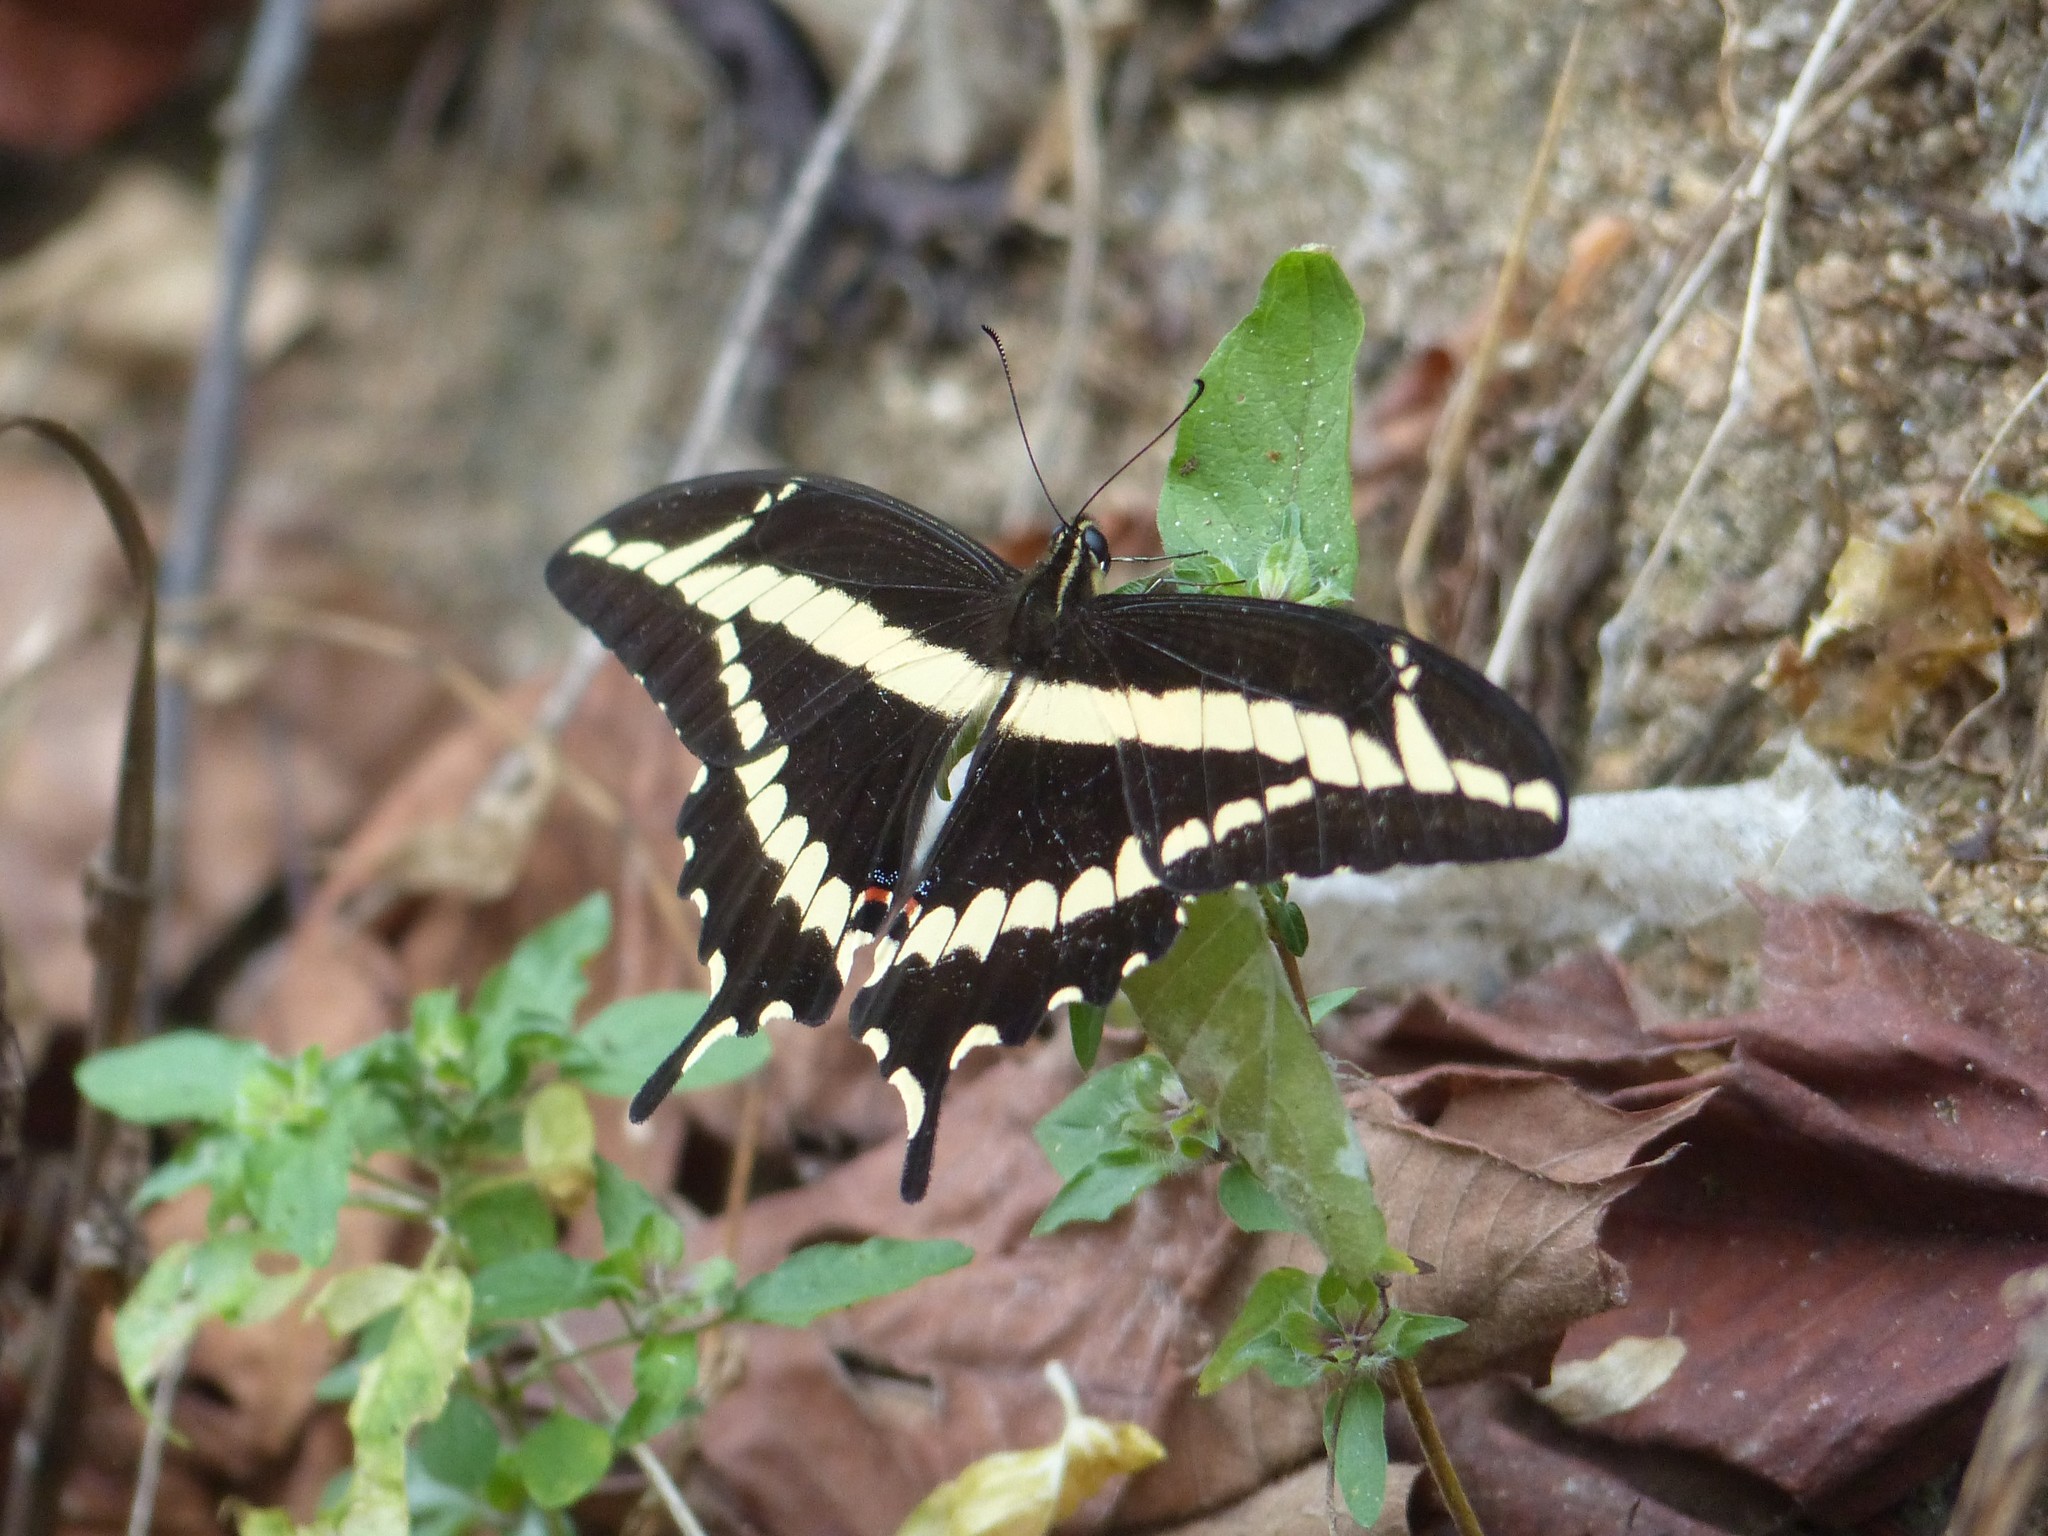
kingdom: Animalia
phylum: Arthropoda
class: Insecta
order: Lepidoptera
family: Papilionidae
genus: Heraclides
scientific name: Heraclides pallas
